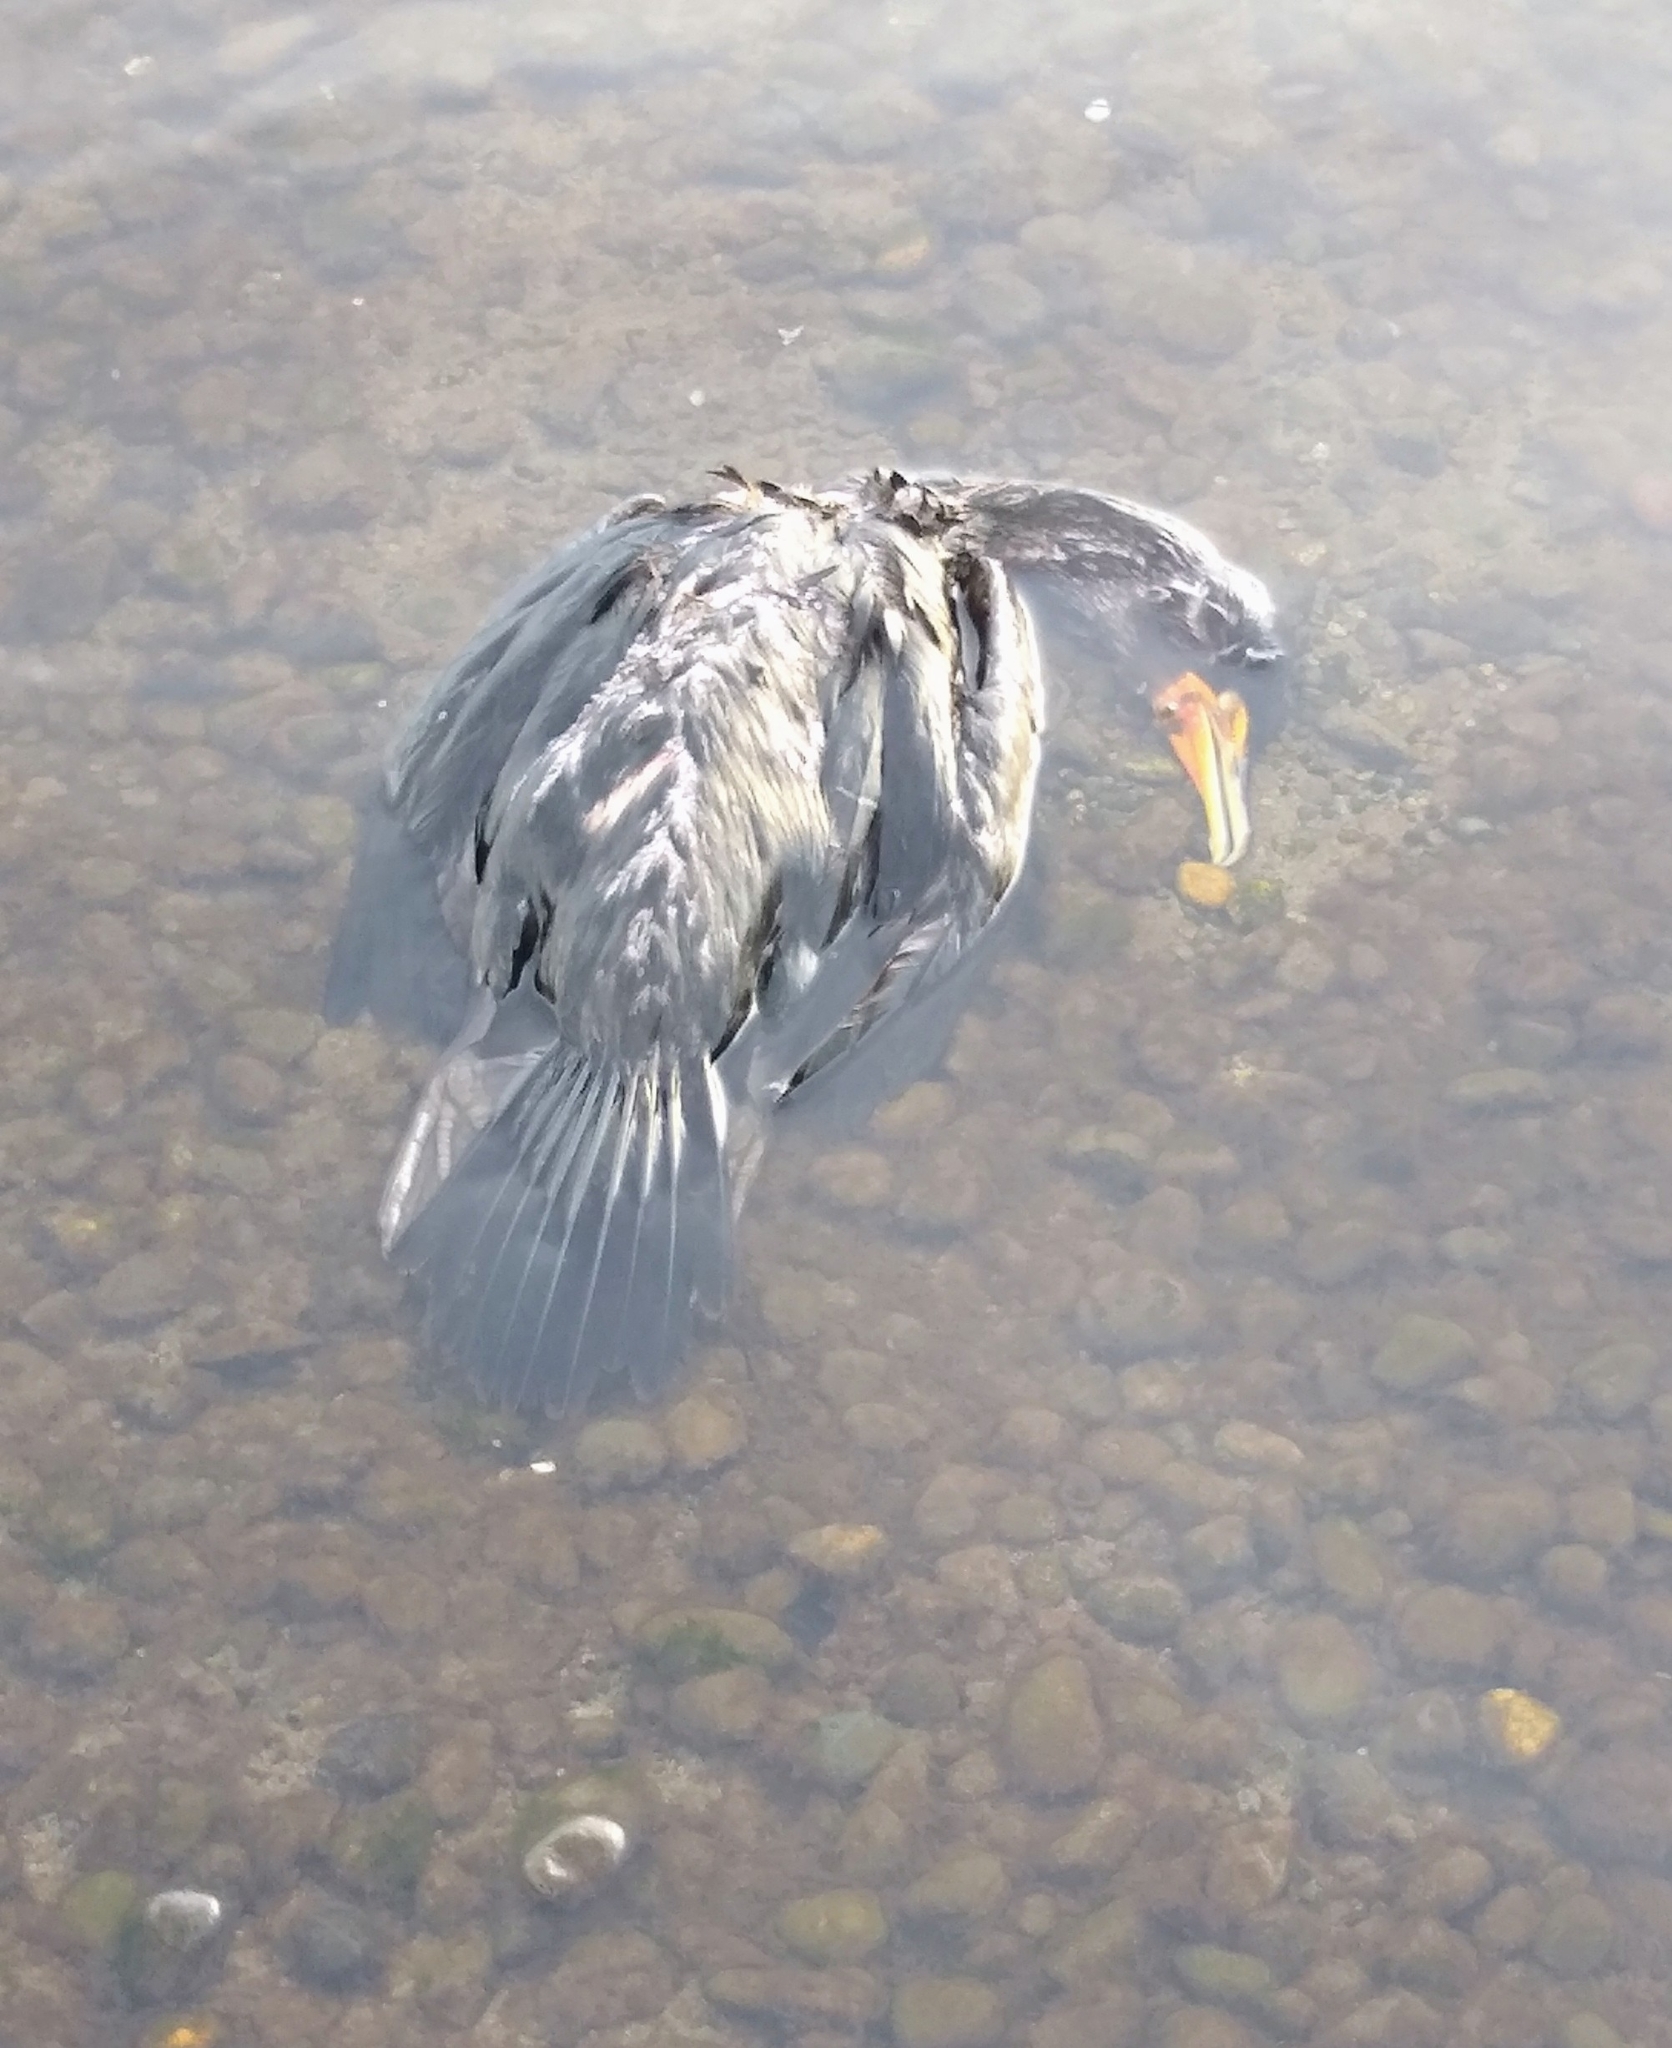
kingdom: Animalia
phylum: Chordata
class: Aves
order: Suliformes
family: Phalacrocoracidae
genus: Phalacrocorax
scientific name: Phalacrocorax auritus
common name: Double-crested cormorant
